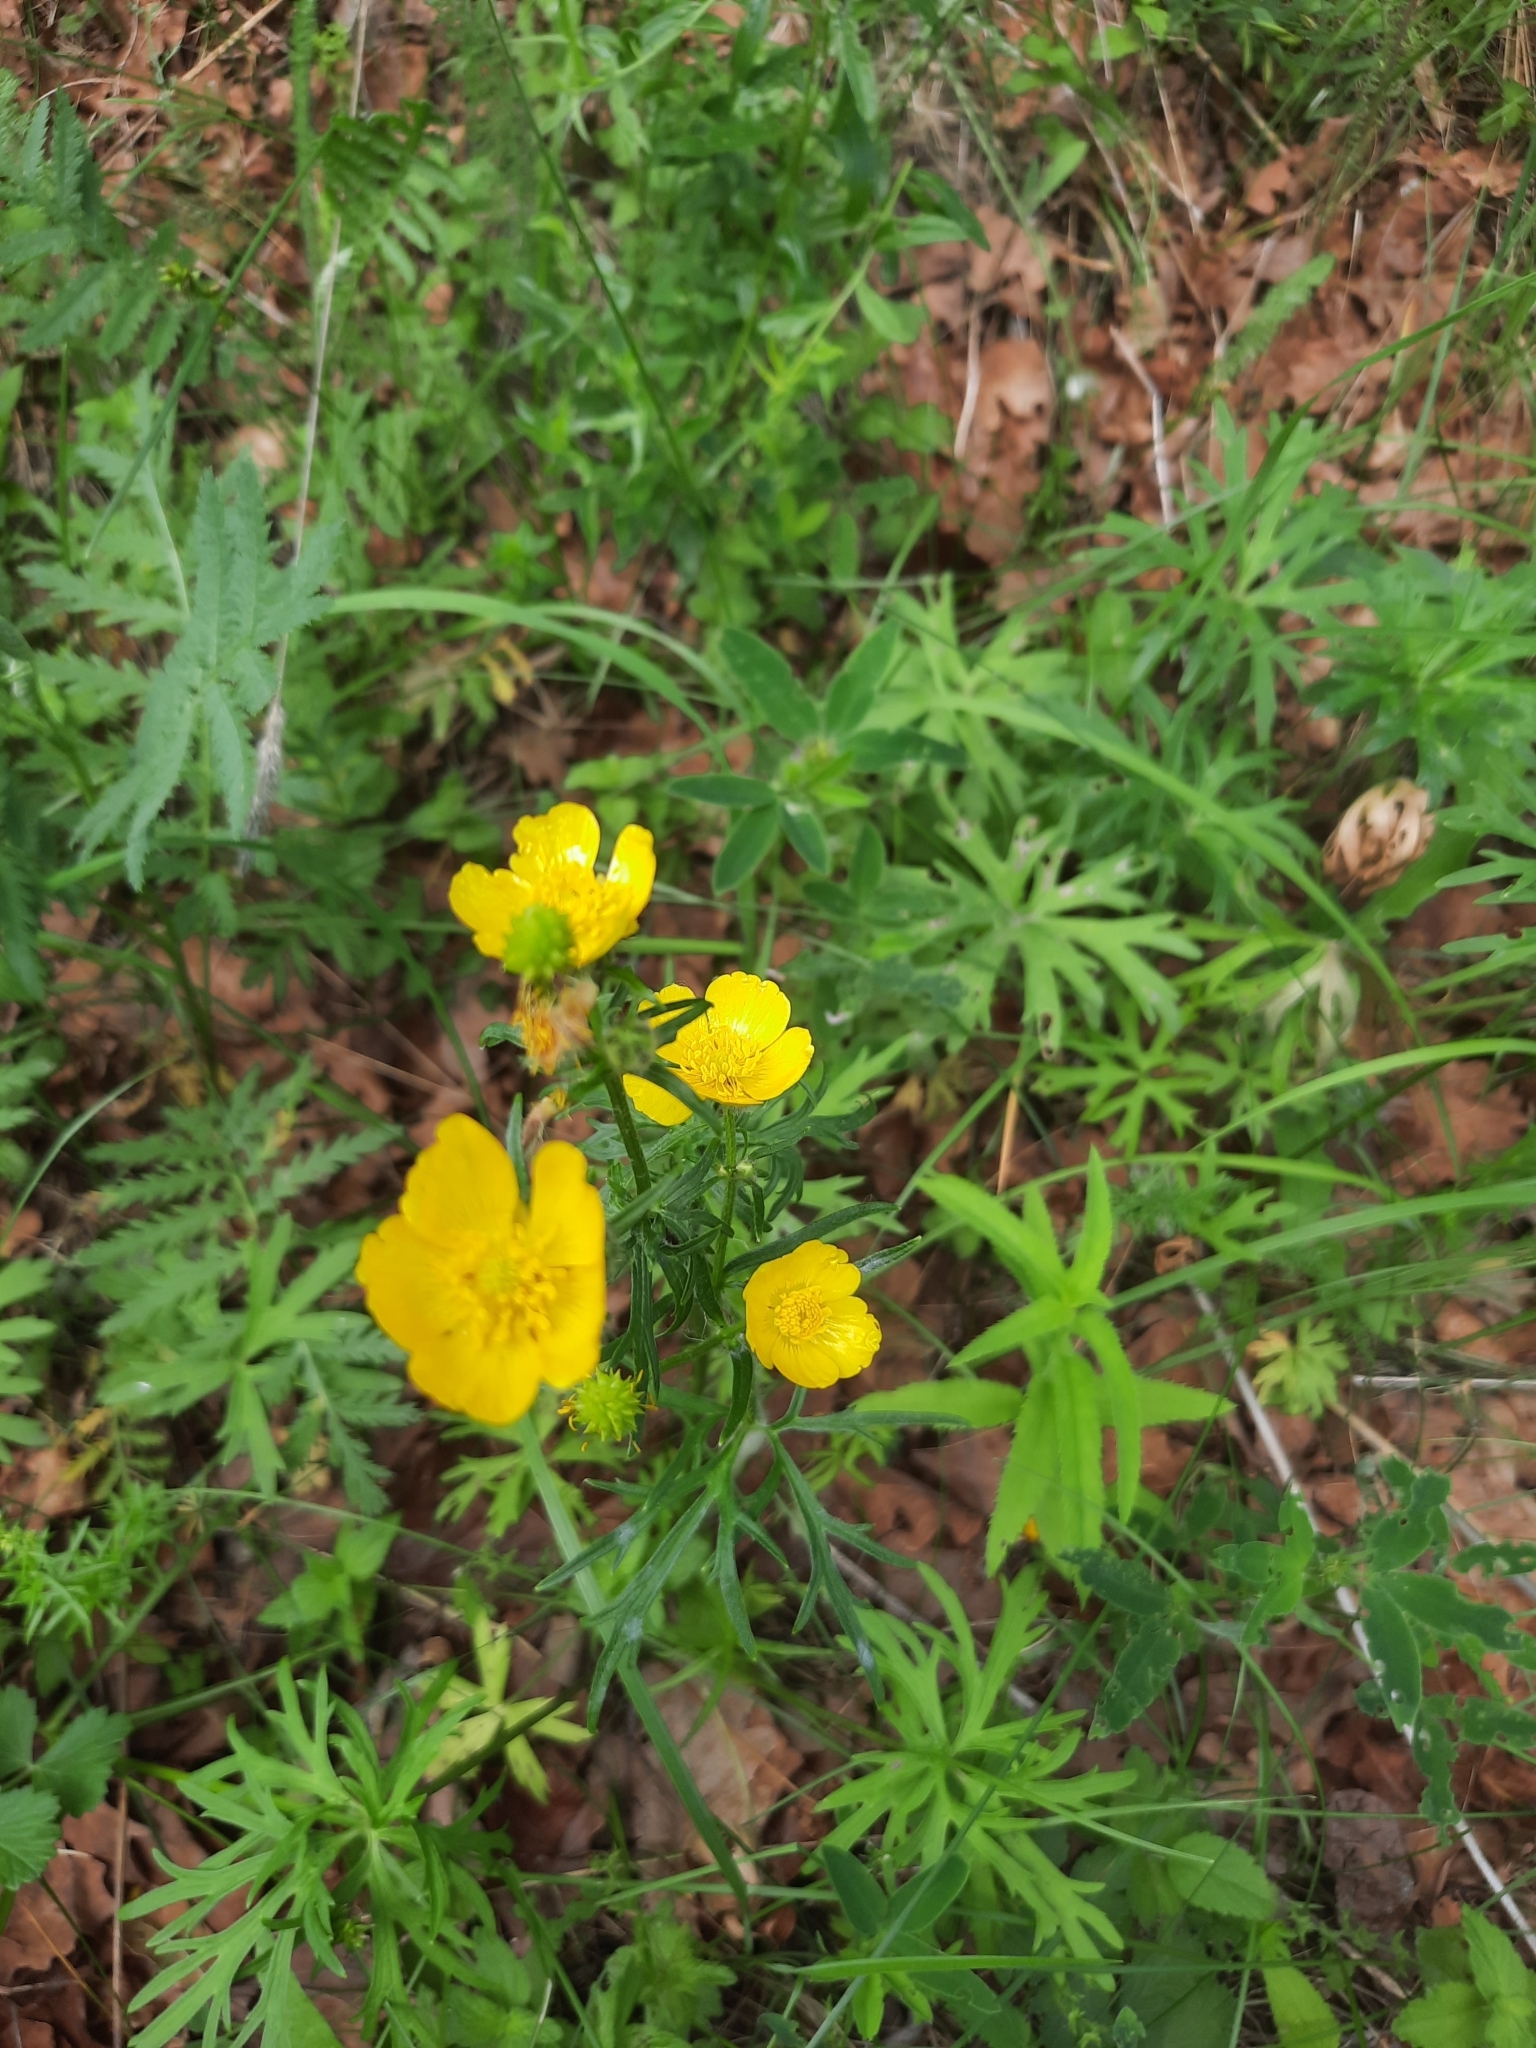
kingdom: Plantae
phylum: Tracheophyta
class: Magnoliopsida
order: Ranunculales
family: Ranunculaceae
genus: Ranunculus
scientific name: Ranunculus polyanthemos
